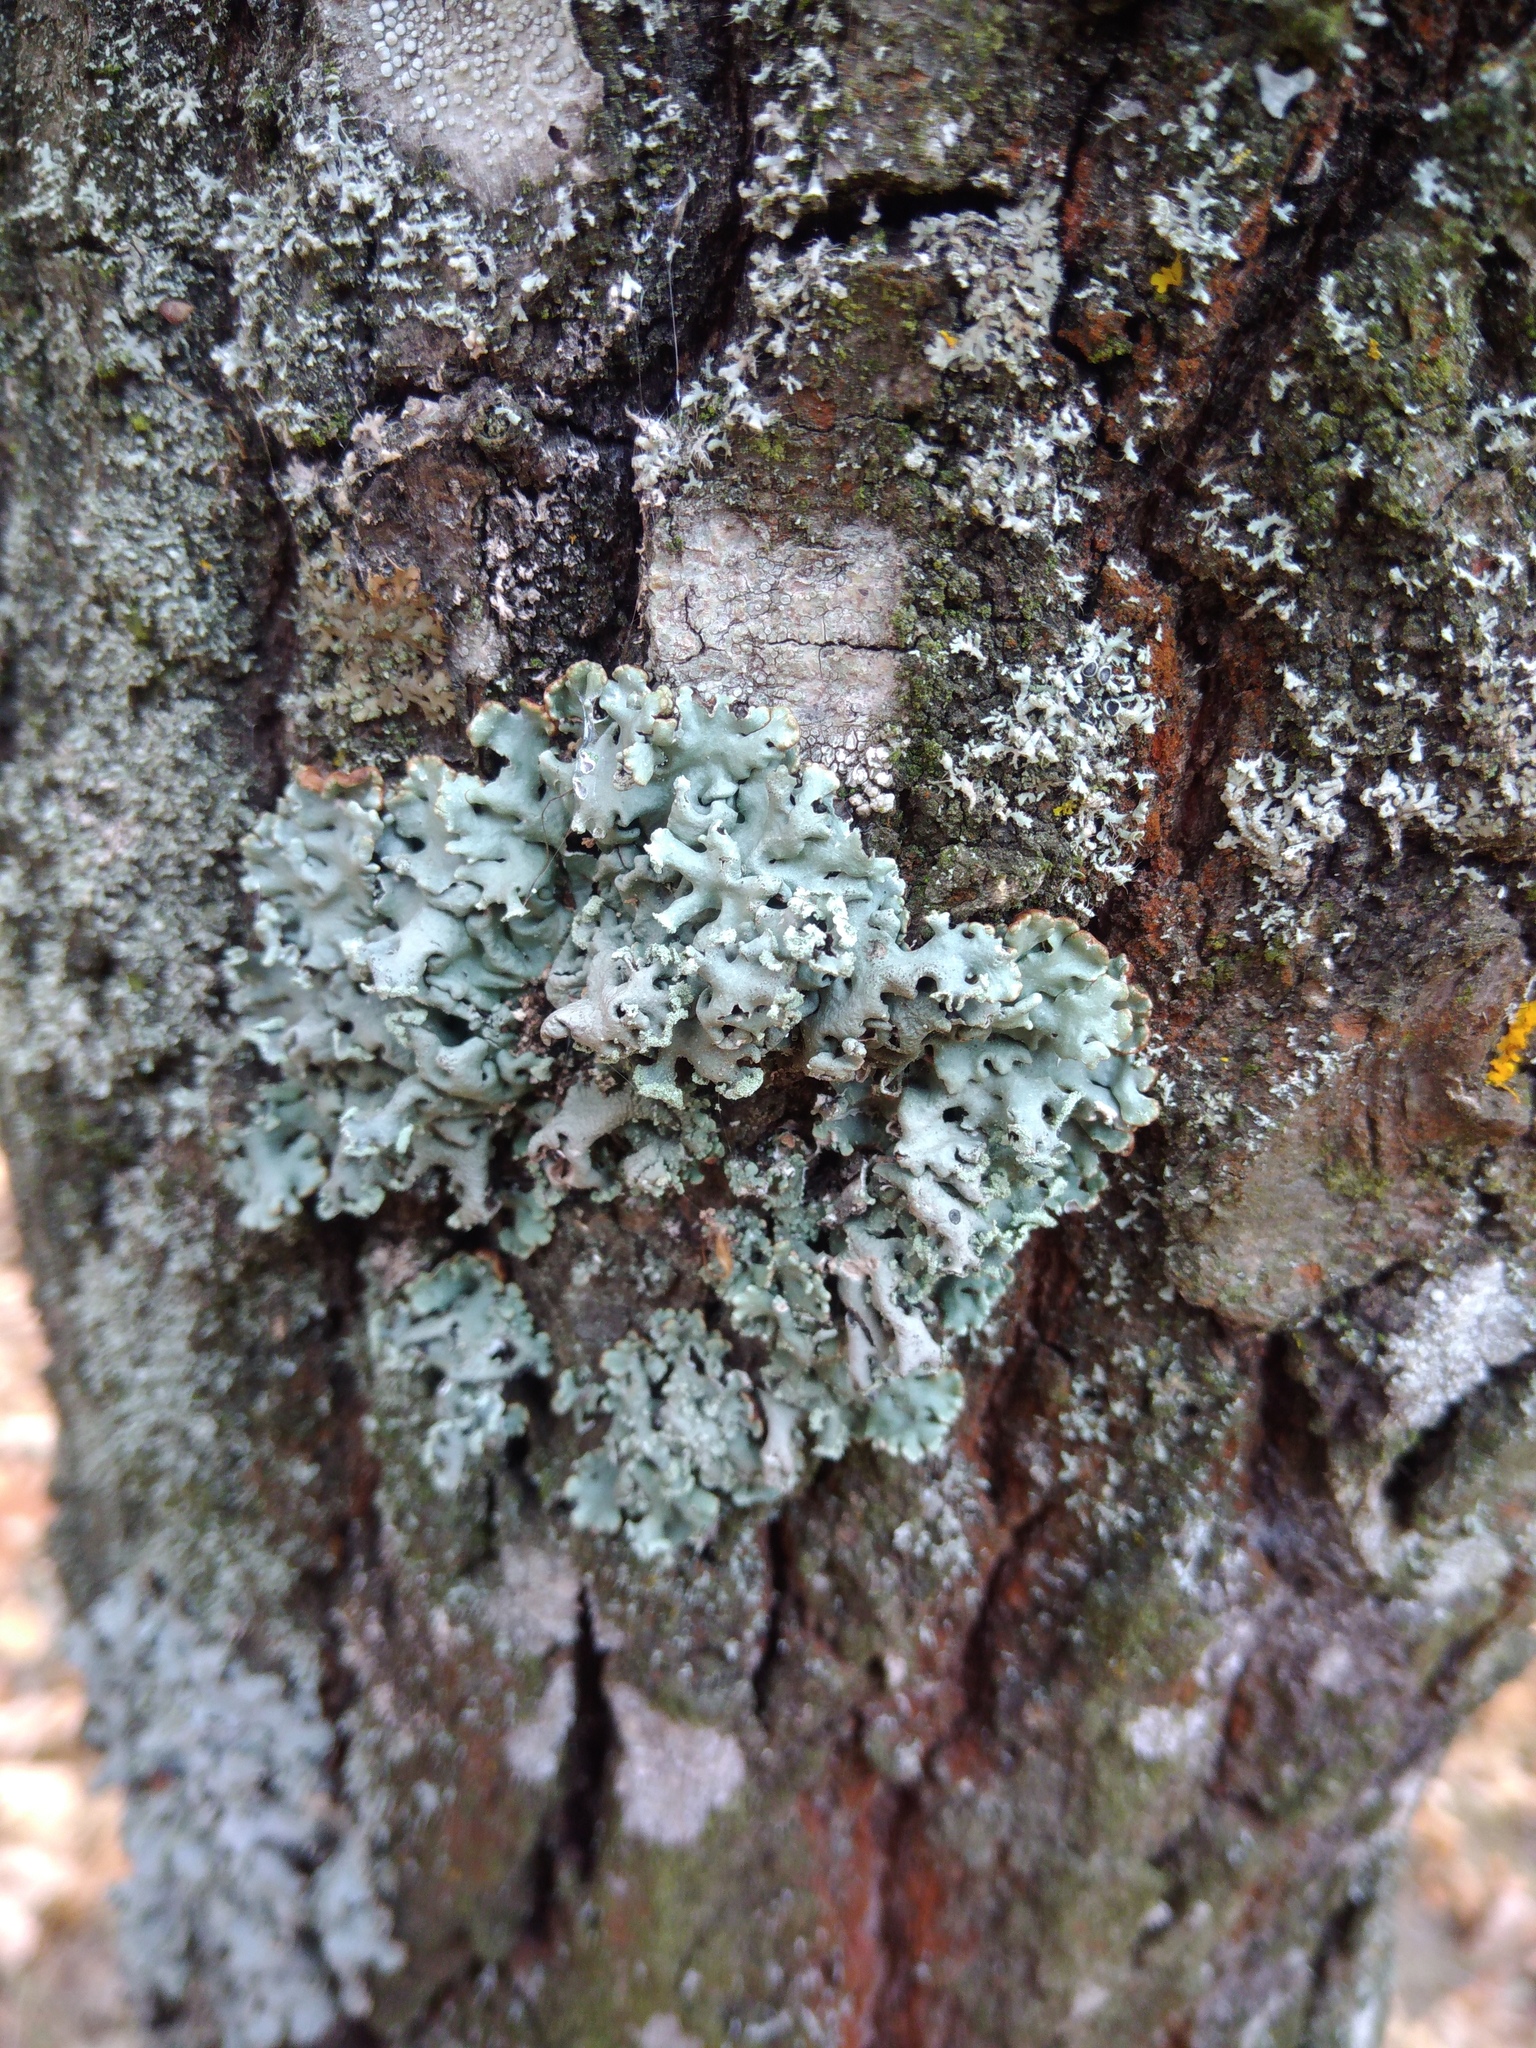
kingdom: Fungi
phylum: Ascomycota
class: Lecanoromycetes
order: Lecanorales
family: Parmeliaceae
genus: Hypogymnia
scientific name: Hypogymnia physodes
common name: Dark crottle
